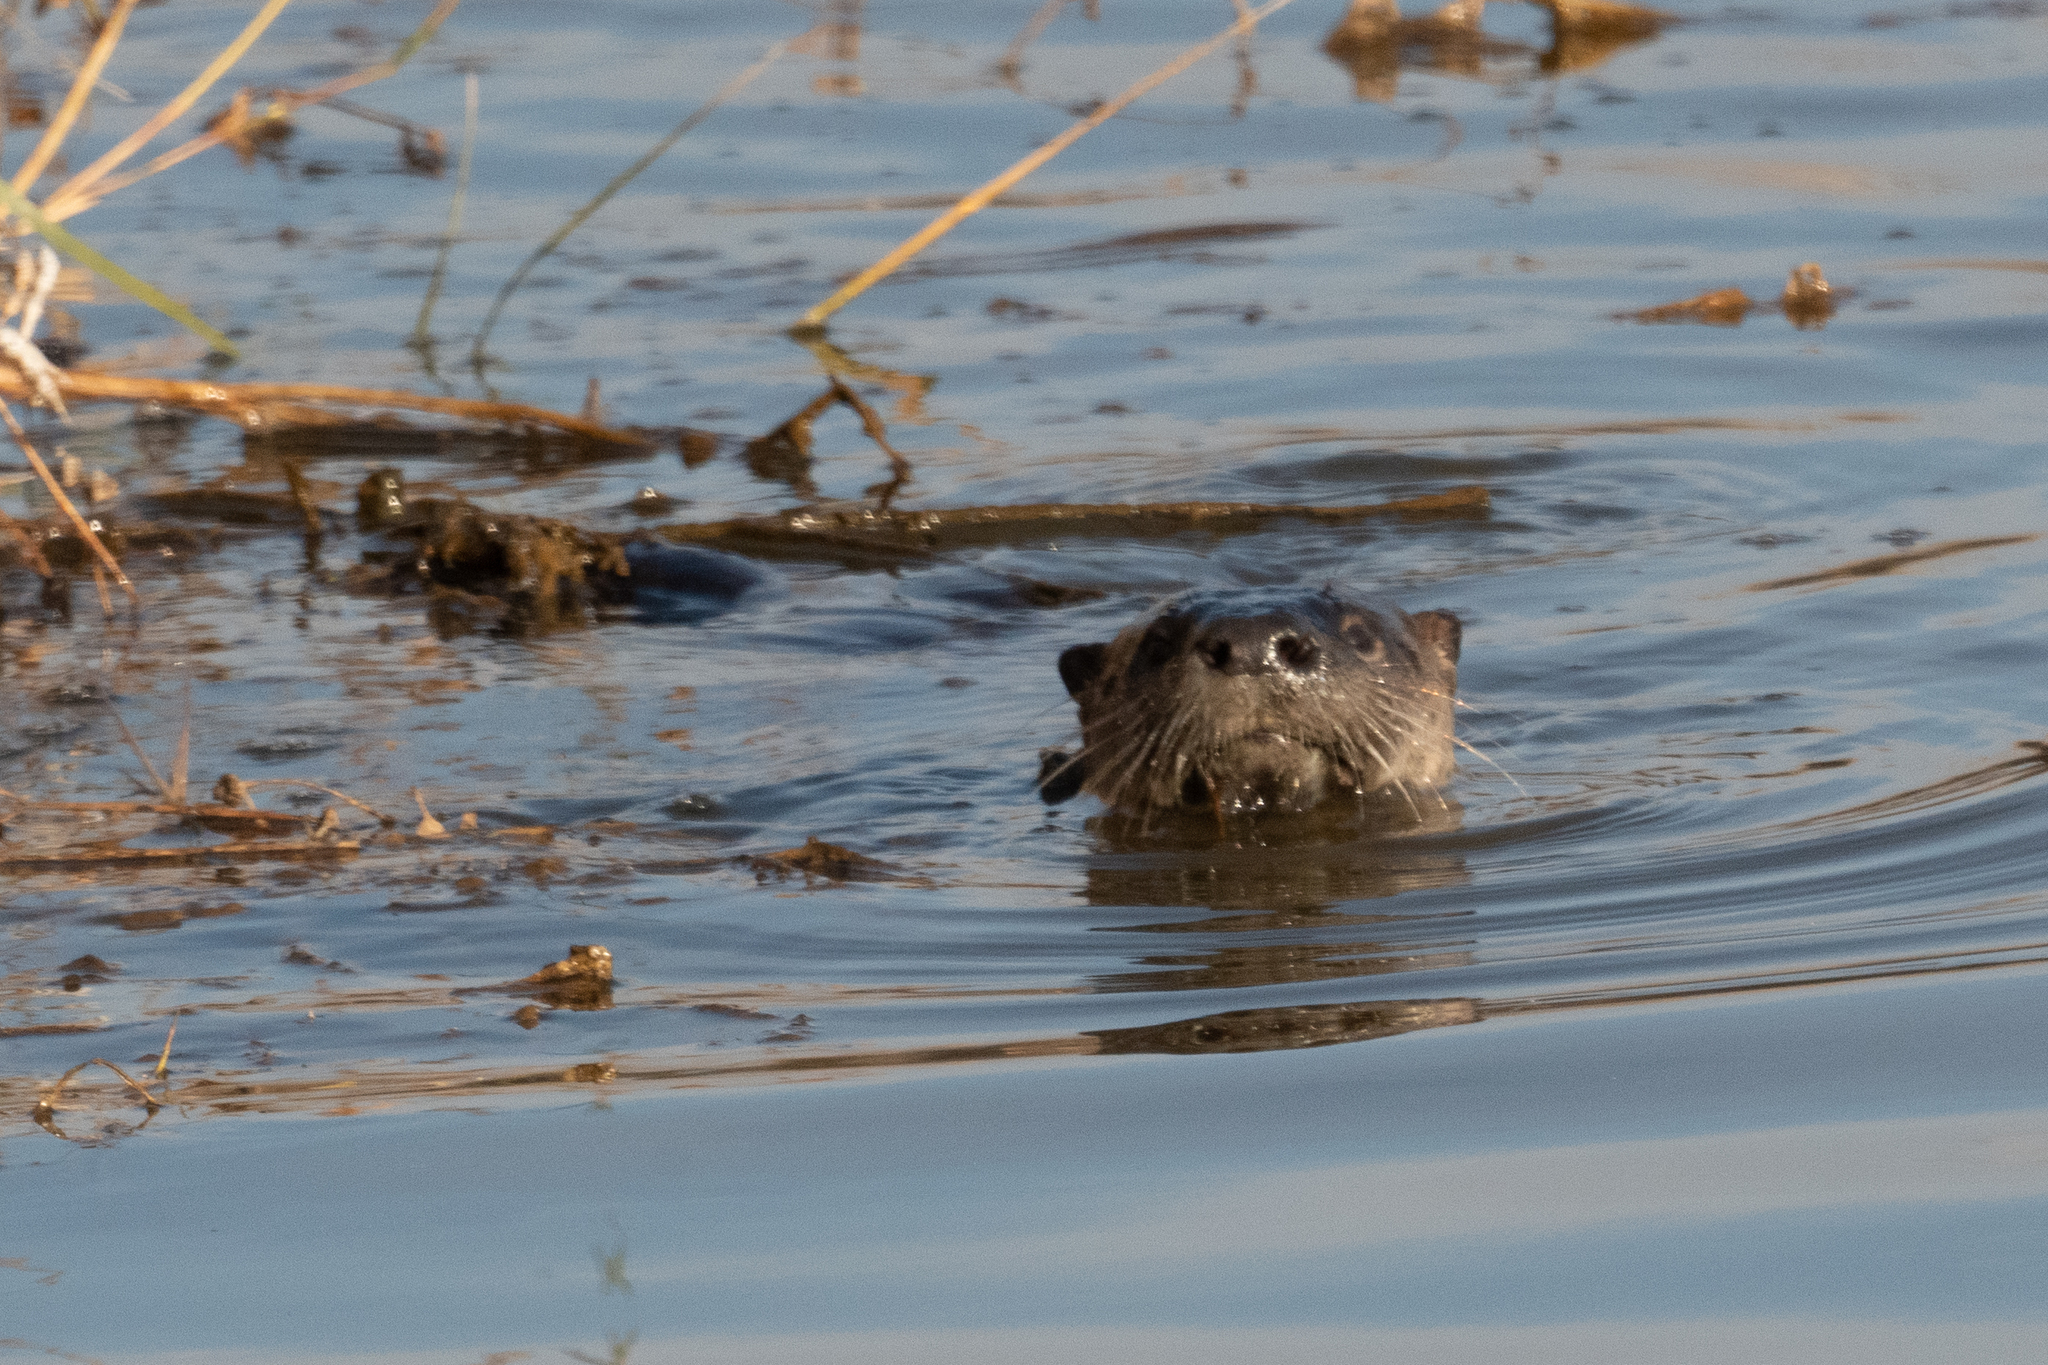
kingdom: Animalia
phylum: Chordata
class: Mammalia
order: Carnivora
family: Mustelidae
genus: Lontra
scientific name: Lontra canadensis
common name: North american river otter
